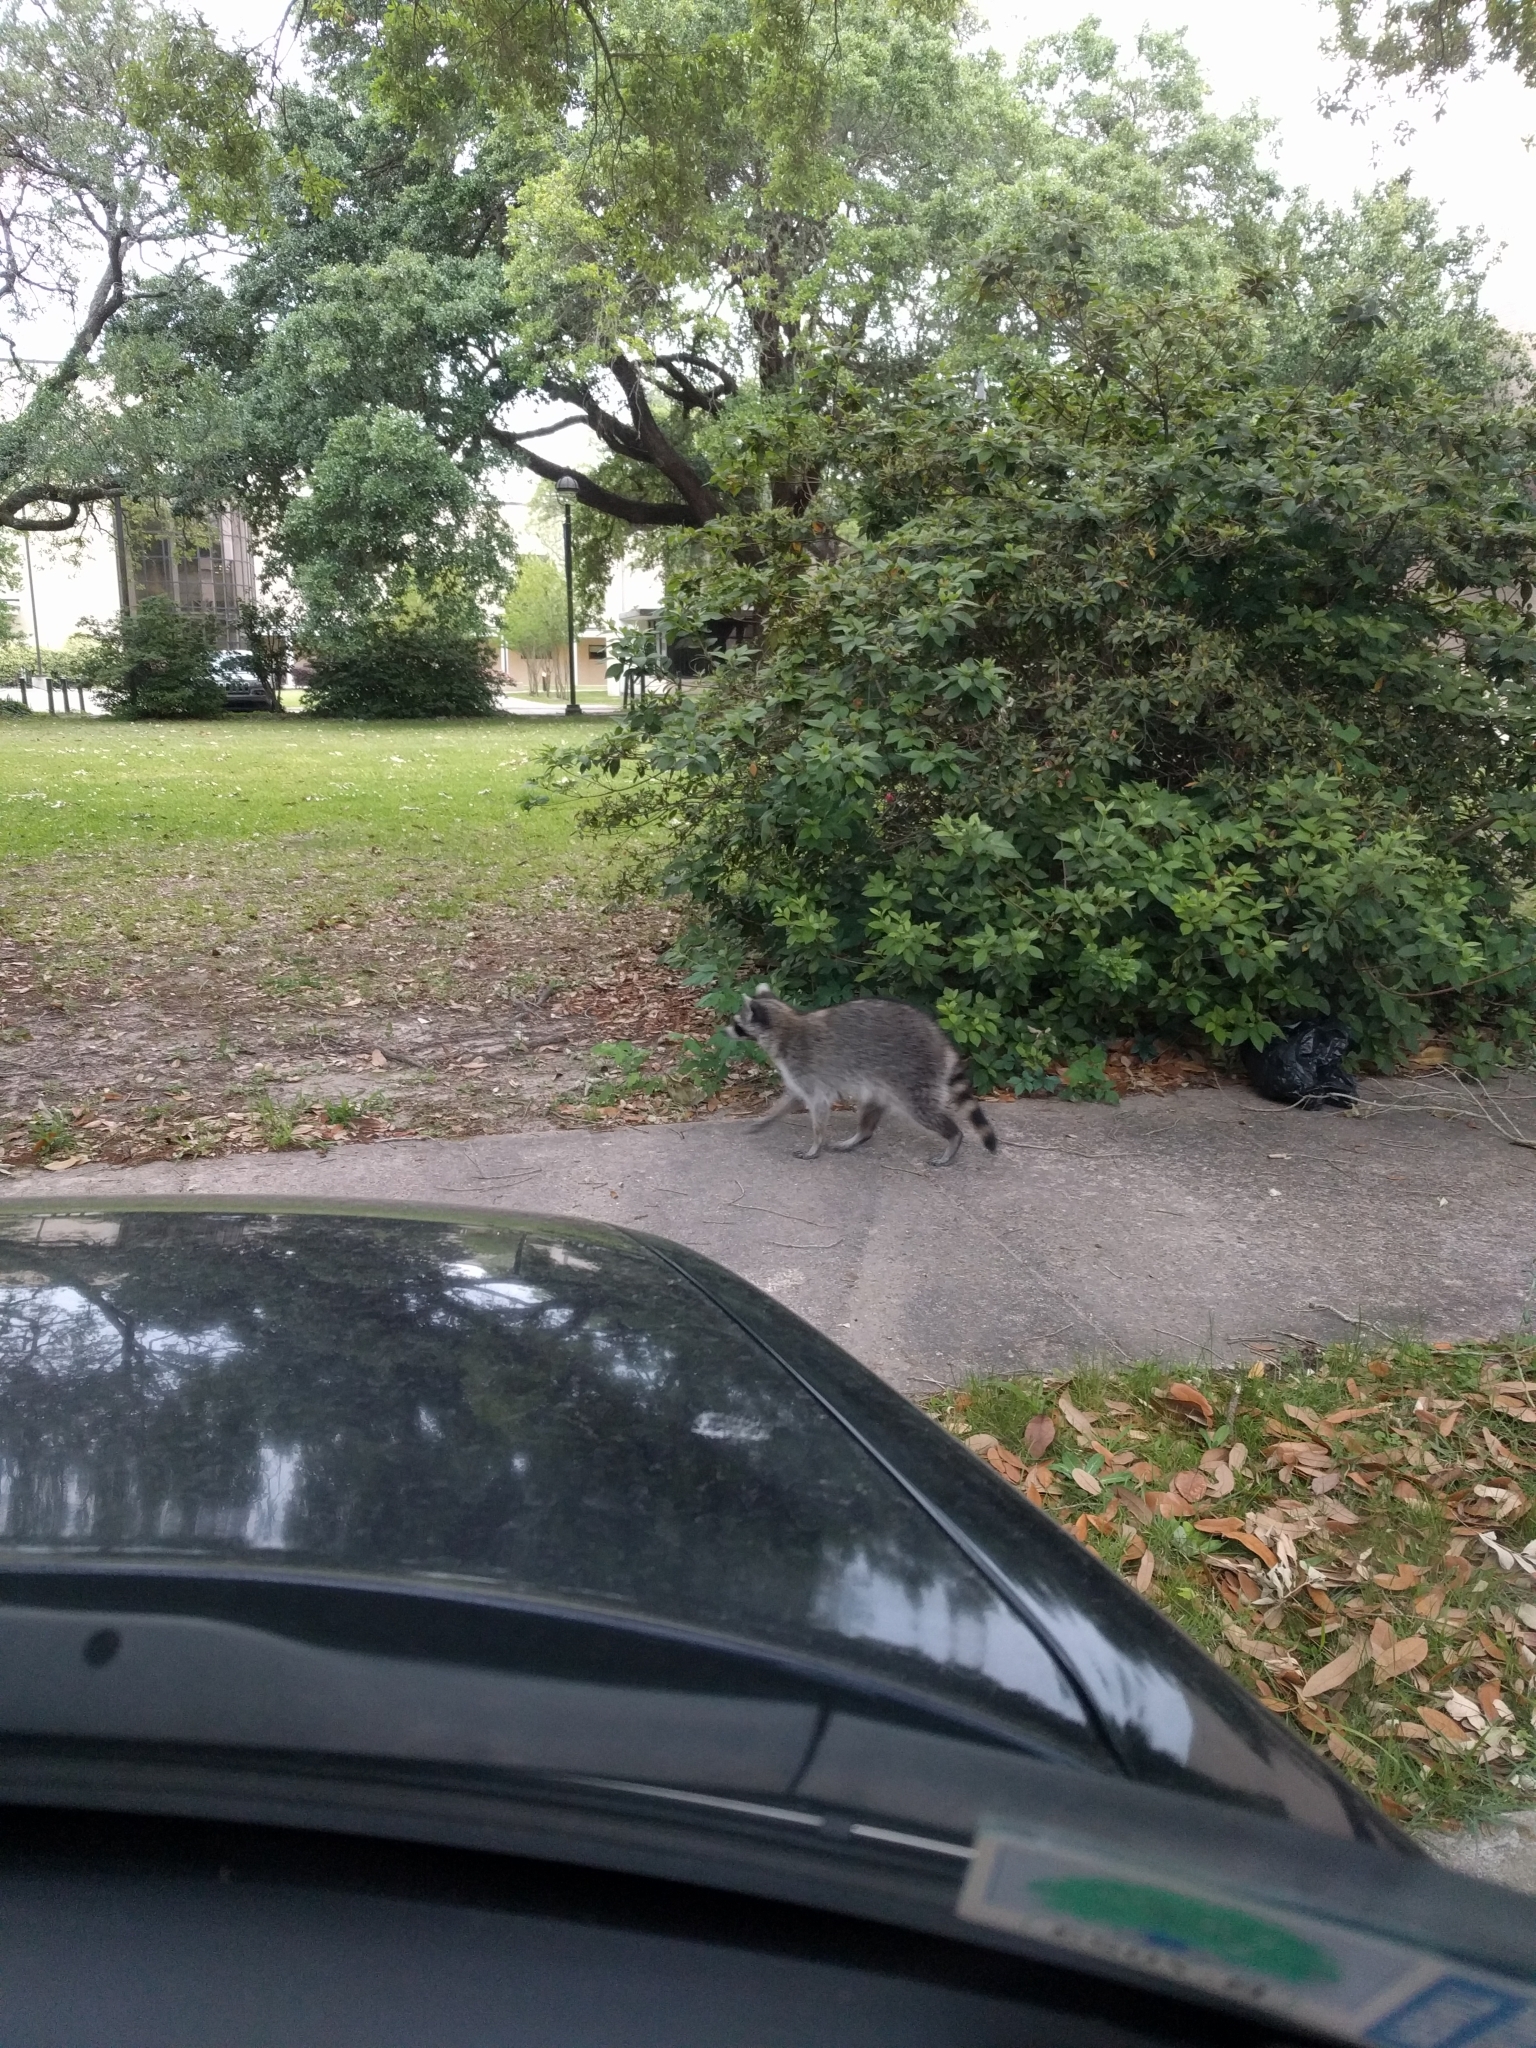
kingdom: Animalia
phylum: Chordata
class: Mammalia
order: Carnivora
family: Procyonidae
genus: Procyon
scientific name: Procyon lotor
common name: Raccoon
